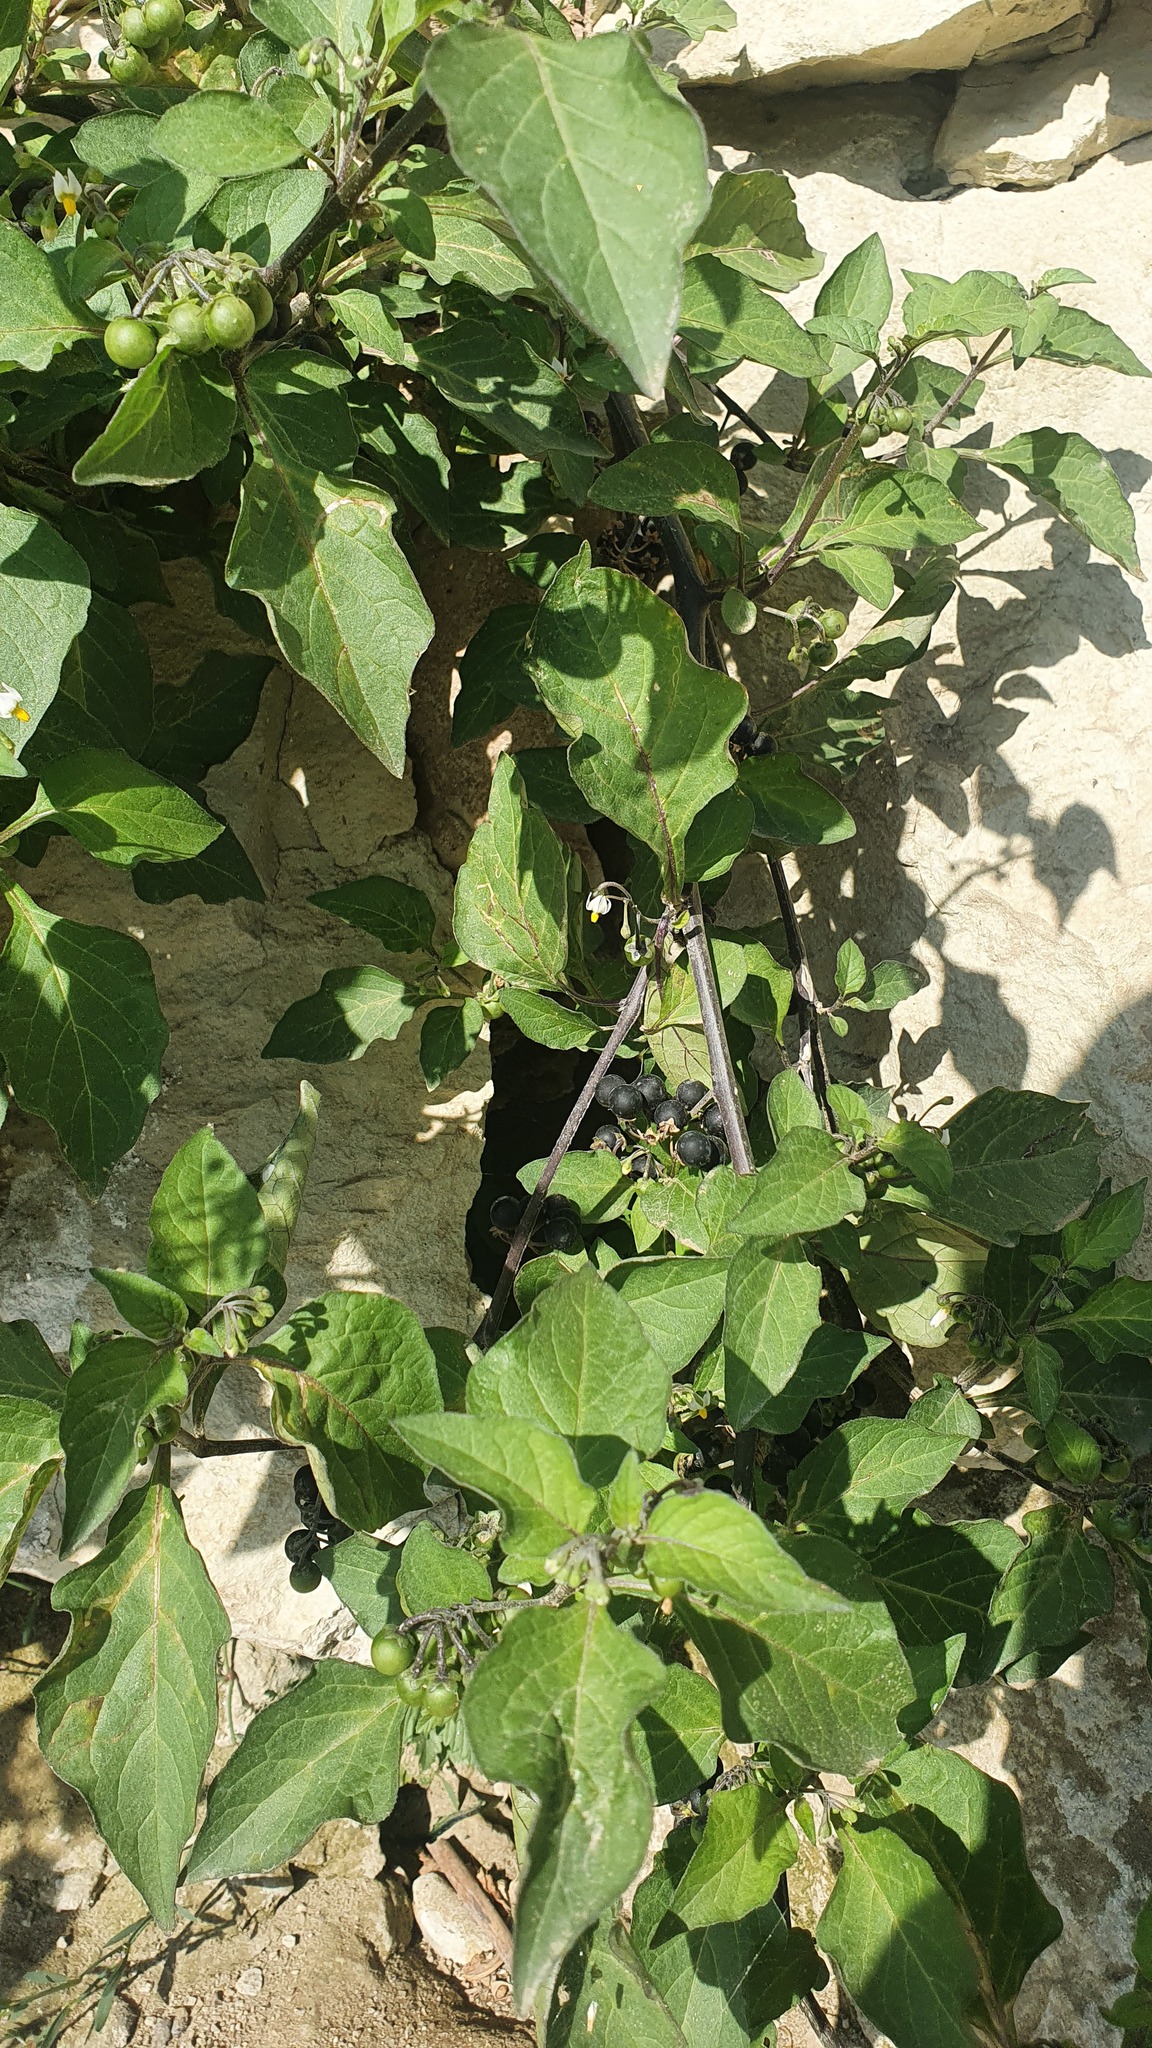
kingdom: Plantae
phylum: Tracheophyta
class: Magnoliopsida
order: Solanales
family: Solanaceae
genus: Solanum
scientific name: Solanum nigrum
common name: Black nightshade
